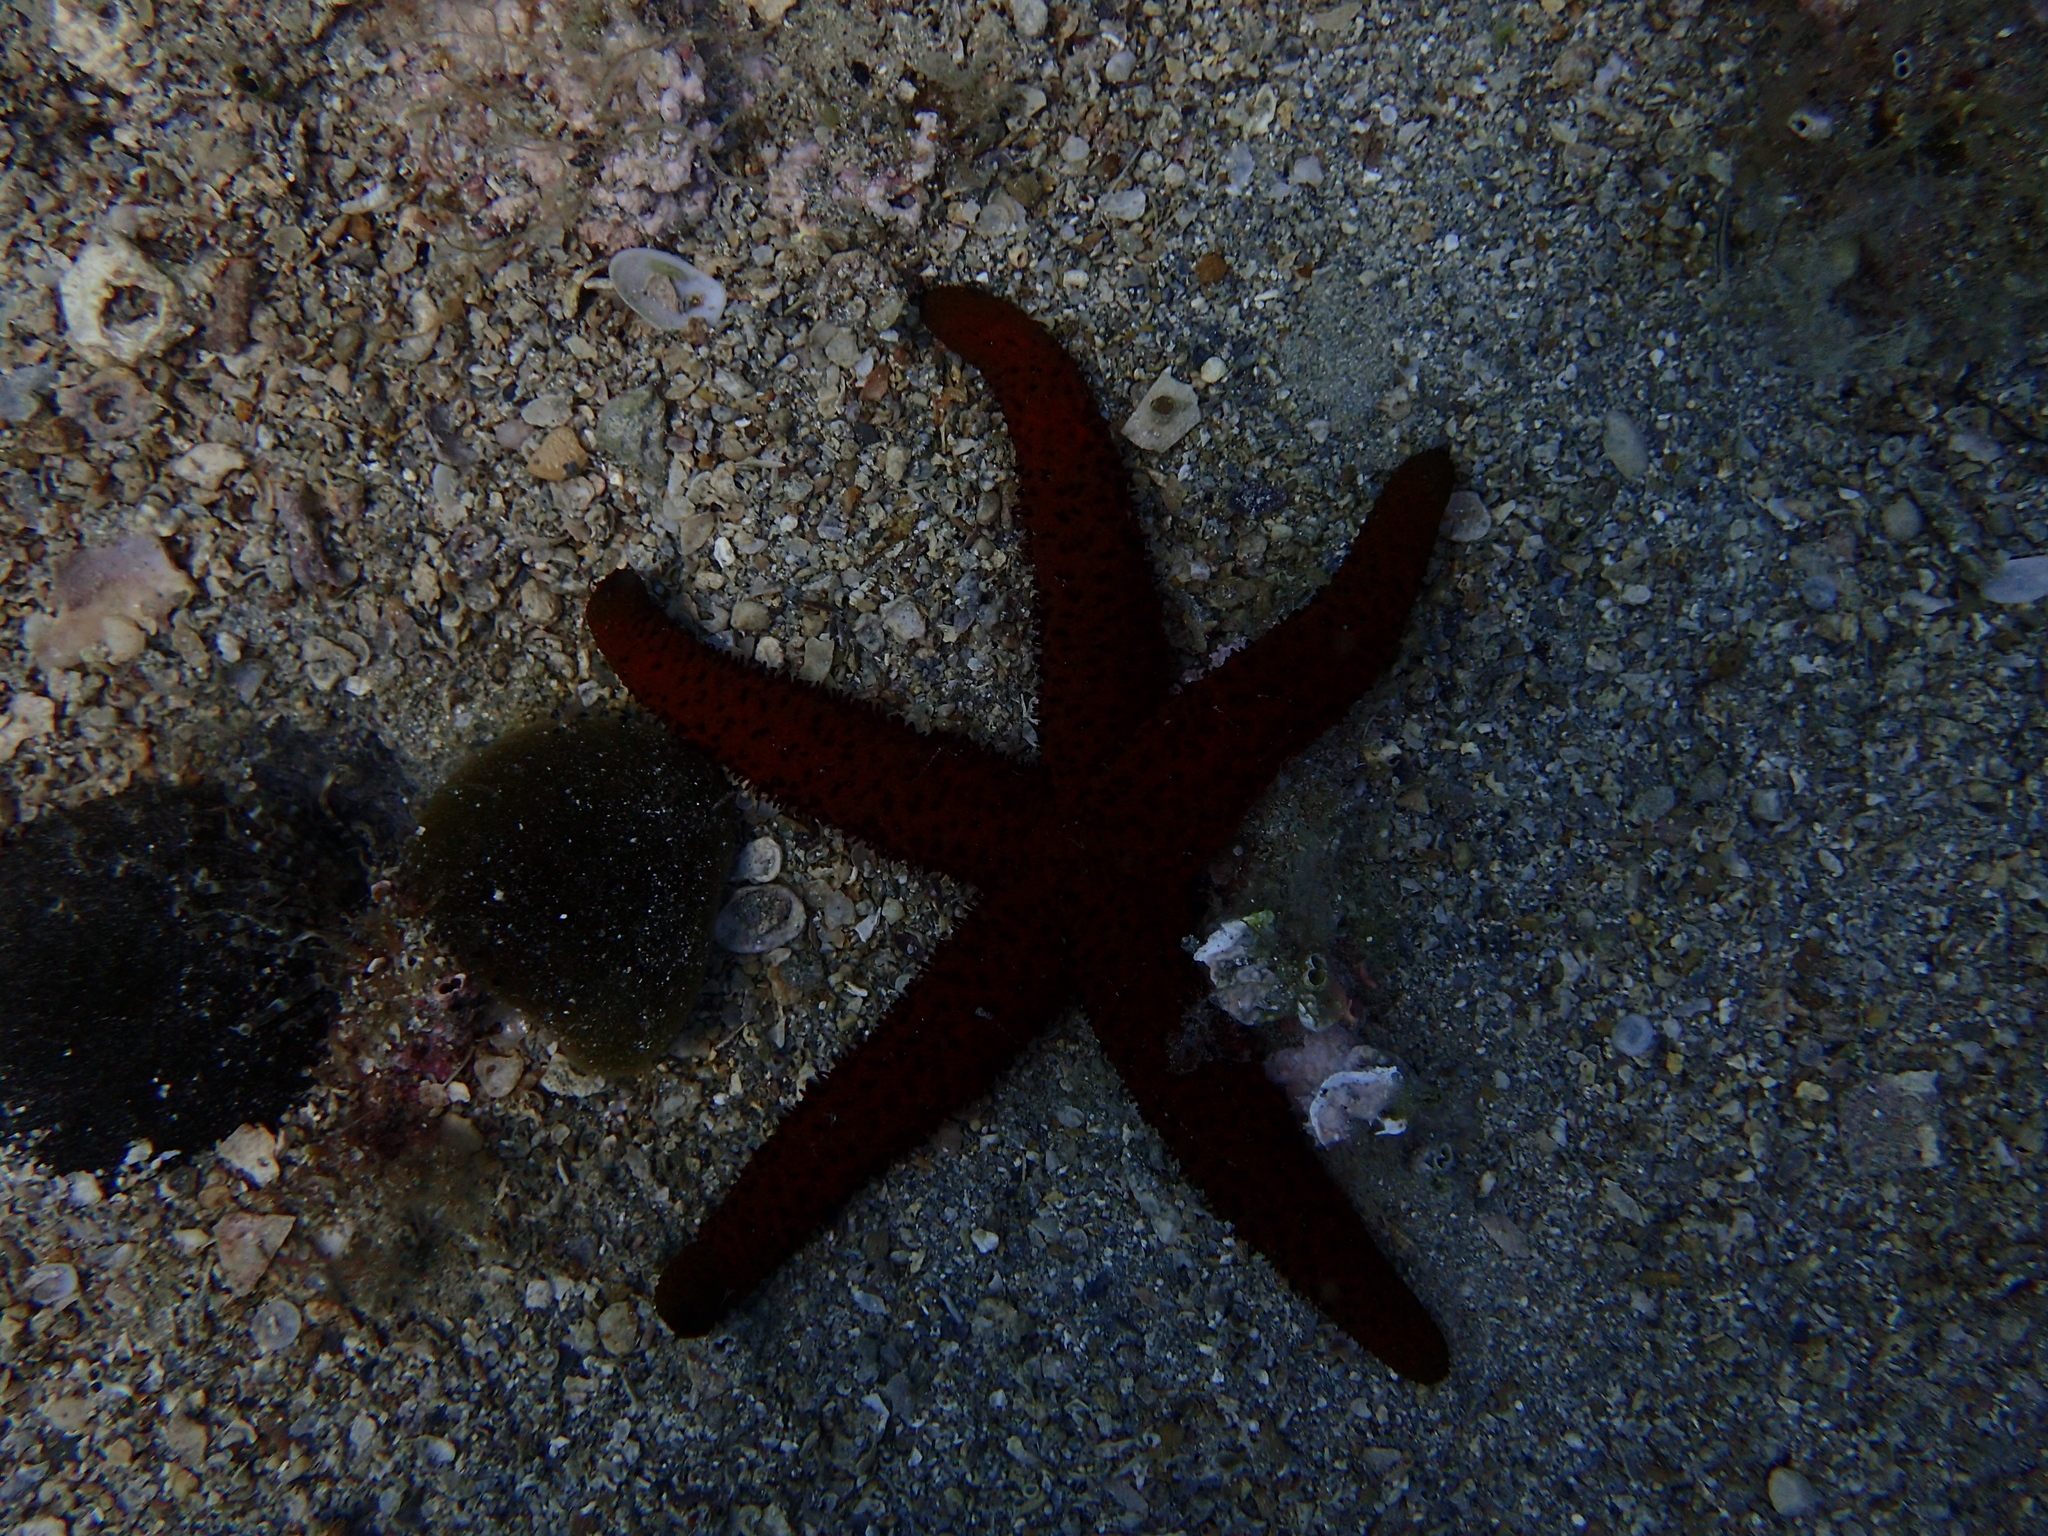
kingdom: Animalia
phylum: Echinodermata
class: Asteroidea
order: Spinulosida
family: Echinasteridae
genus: Echinaster
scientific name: Echinaster sepositus
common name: Red starfish
